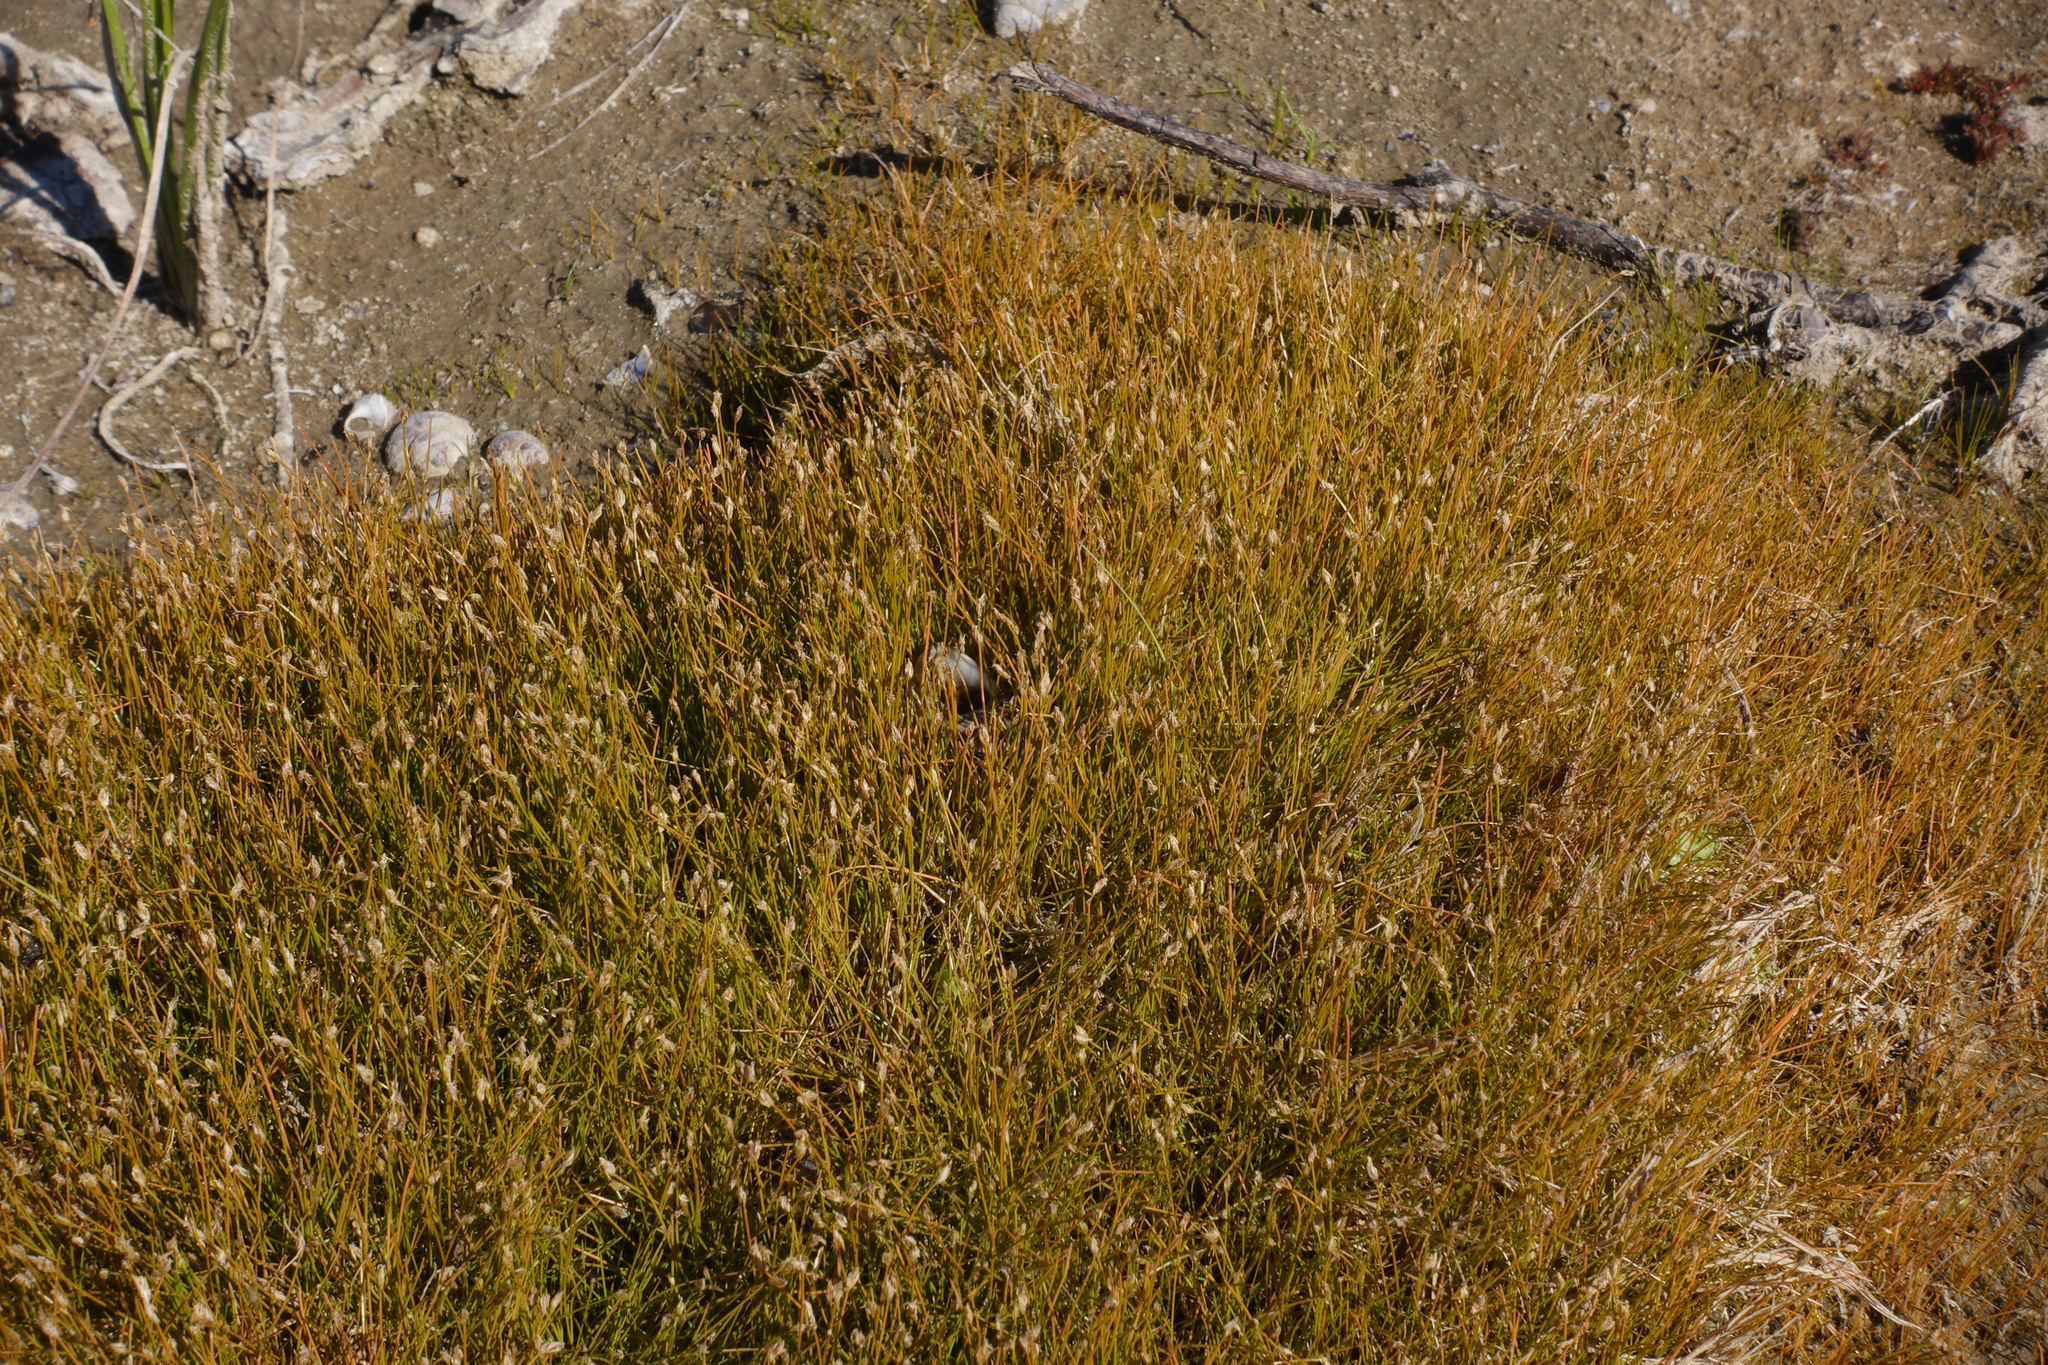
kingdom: Plantae
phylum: Tracheophyta
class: Liliopsida
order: Poales
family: Cyperaceae
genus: Eleocharis
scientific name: Eleocharis acicularis
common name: Needle spike-rush
